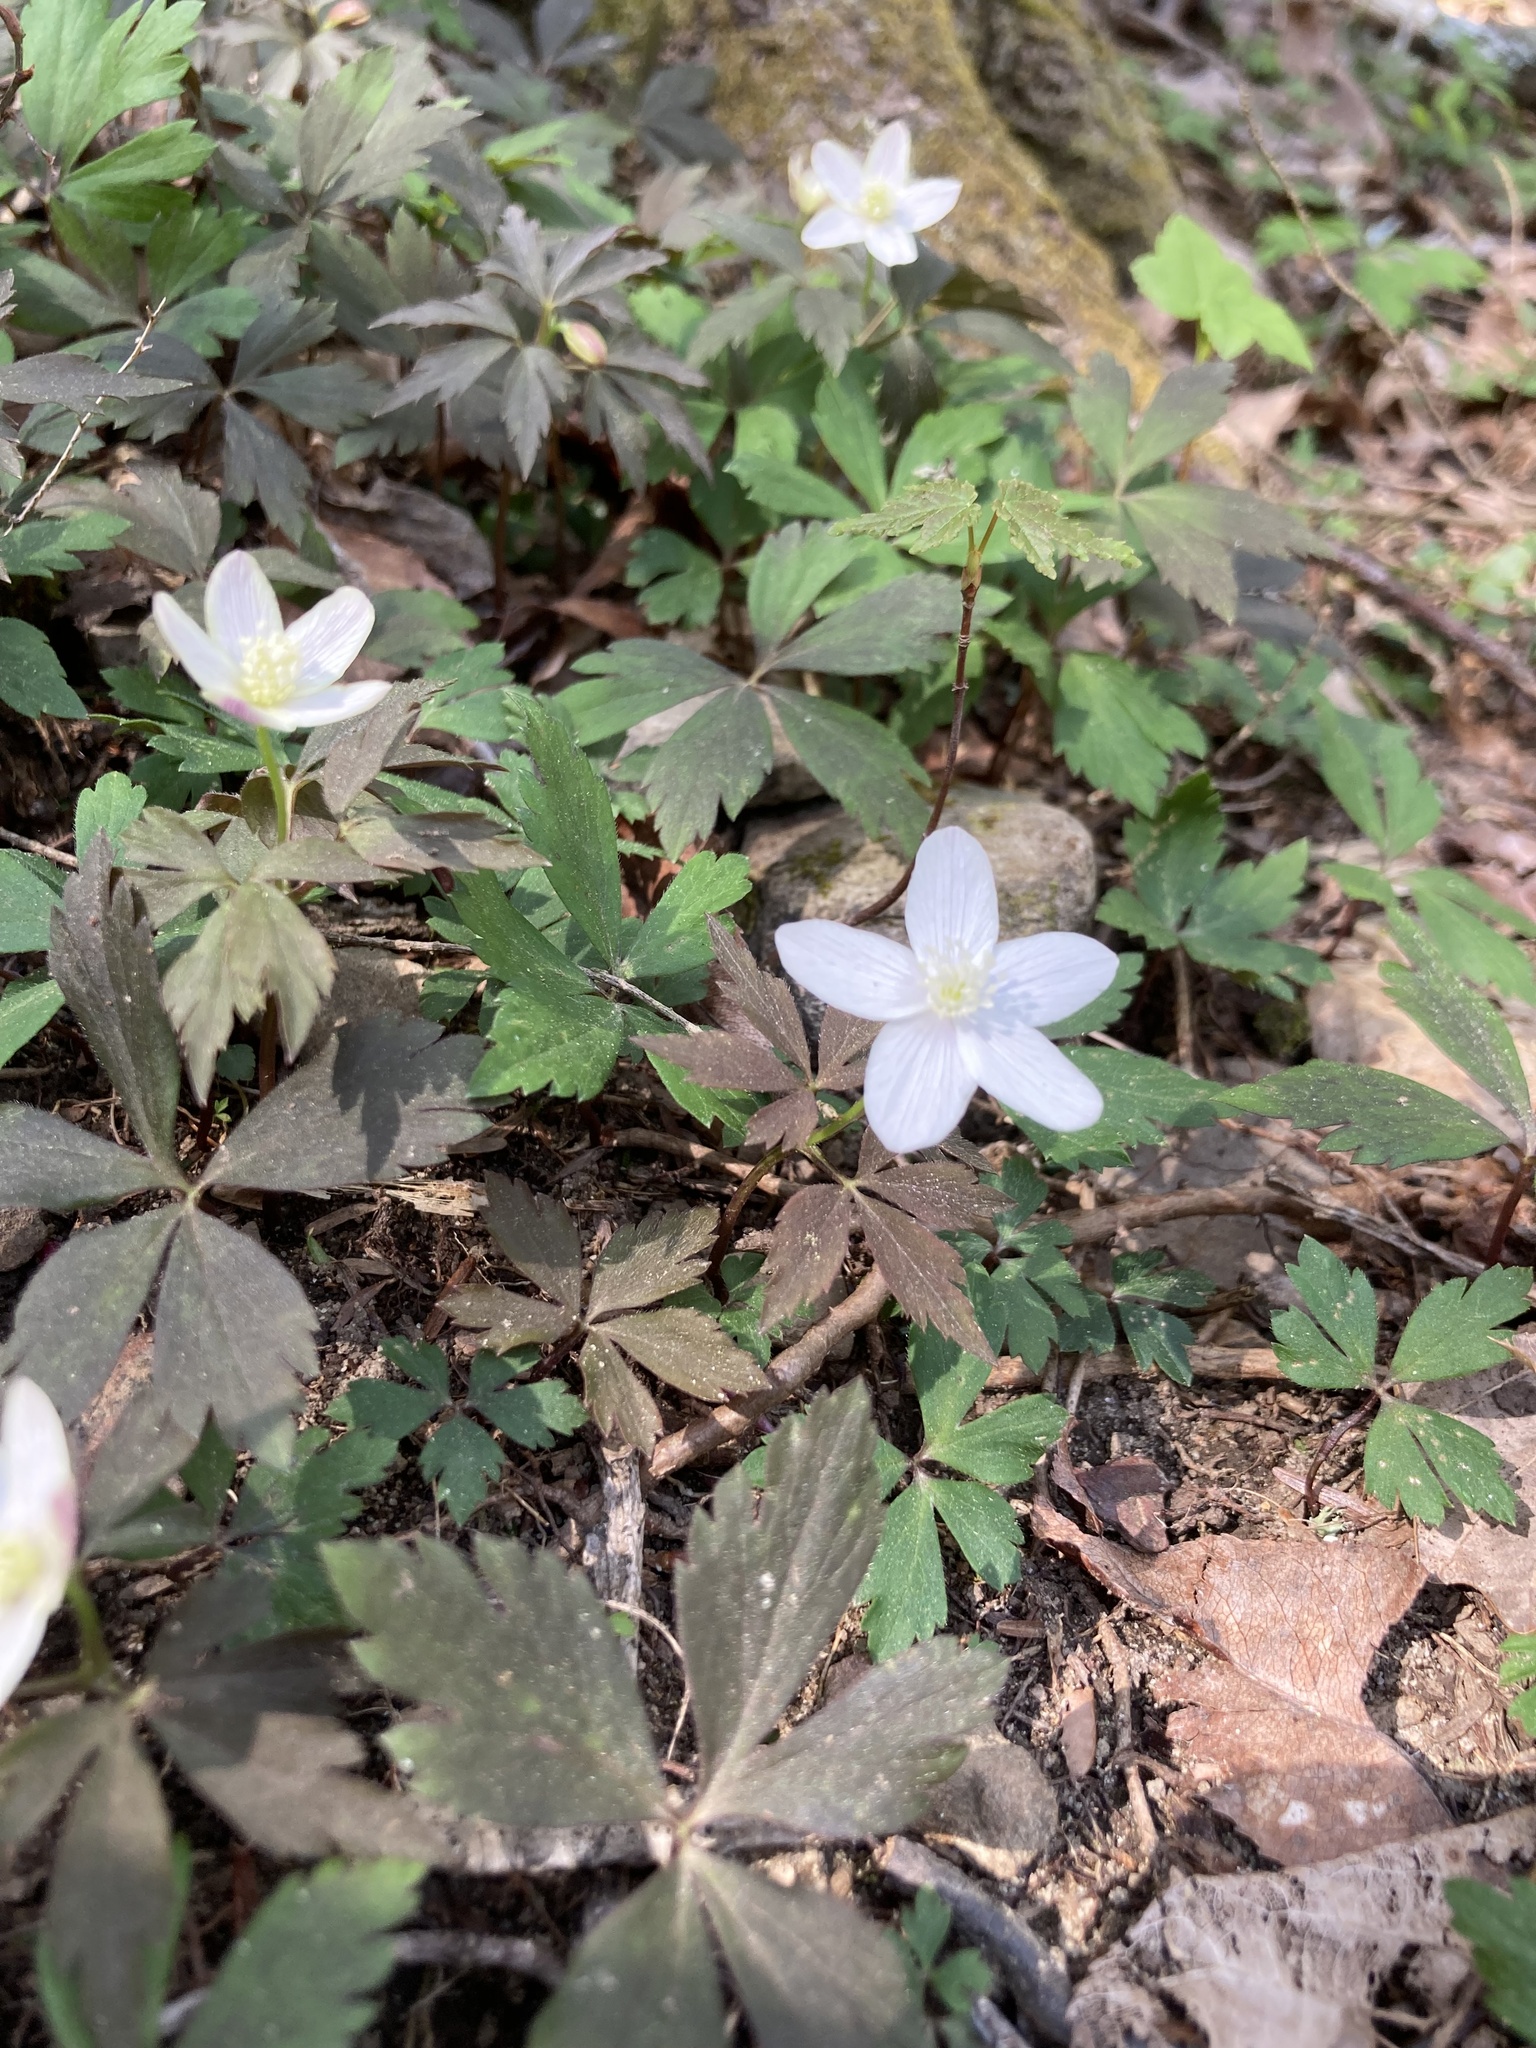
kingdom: Plantae
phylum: Tracheophyta
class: Magnoliopsida
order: Ranunculales
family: Ranunculaceae
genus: Anemone
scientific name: Anemone quinquefolia
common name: Wood anemone
